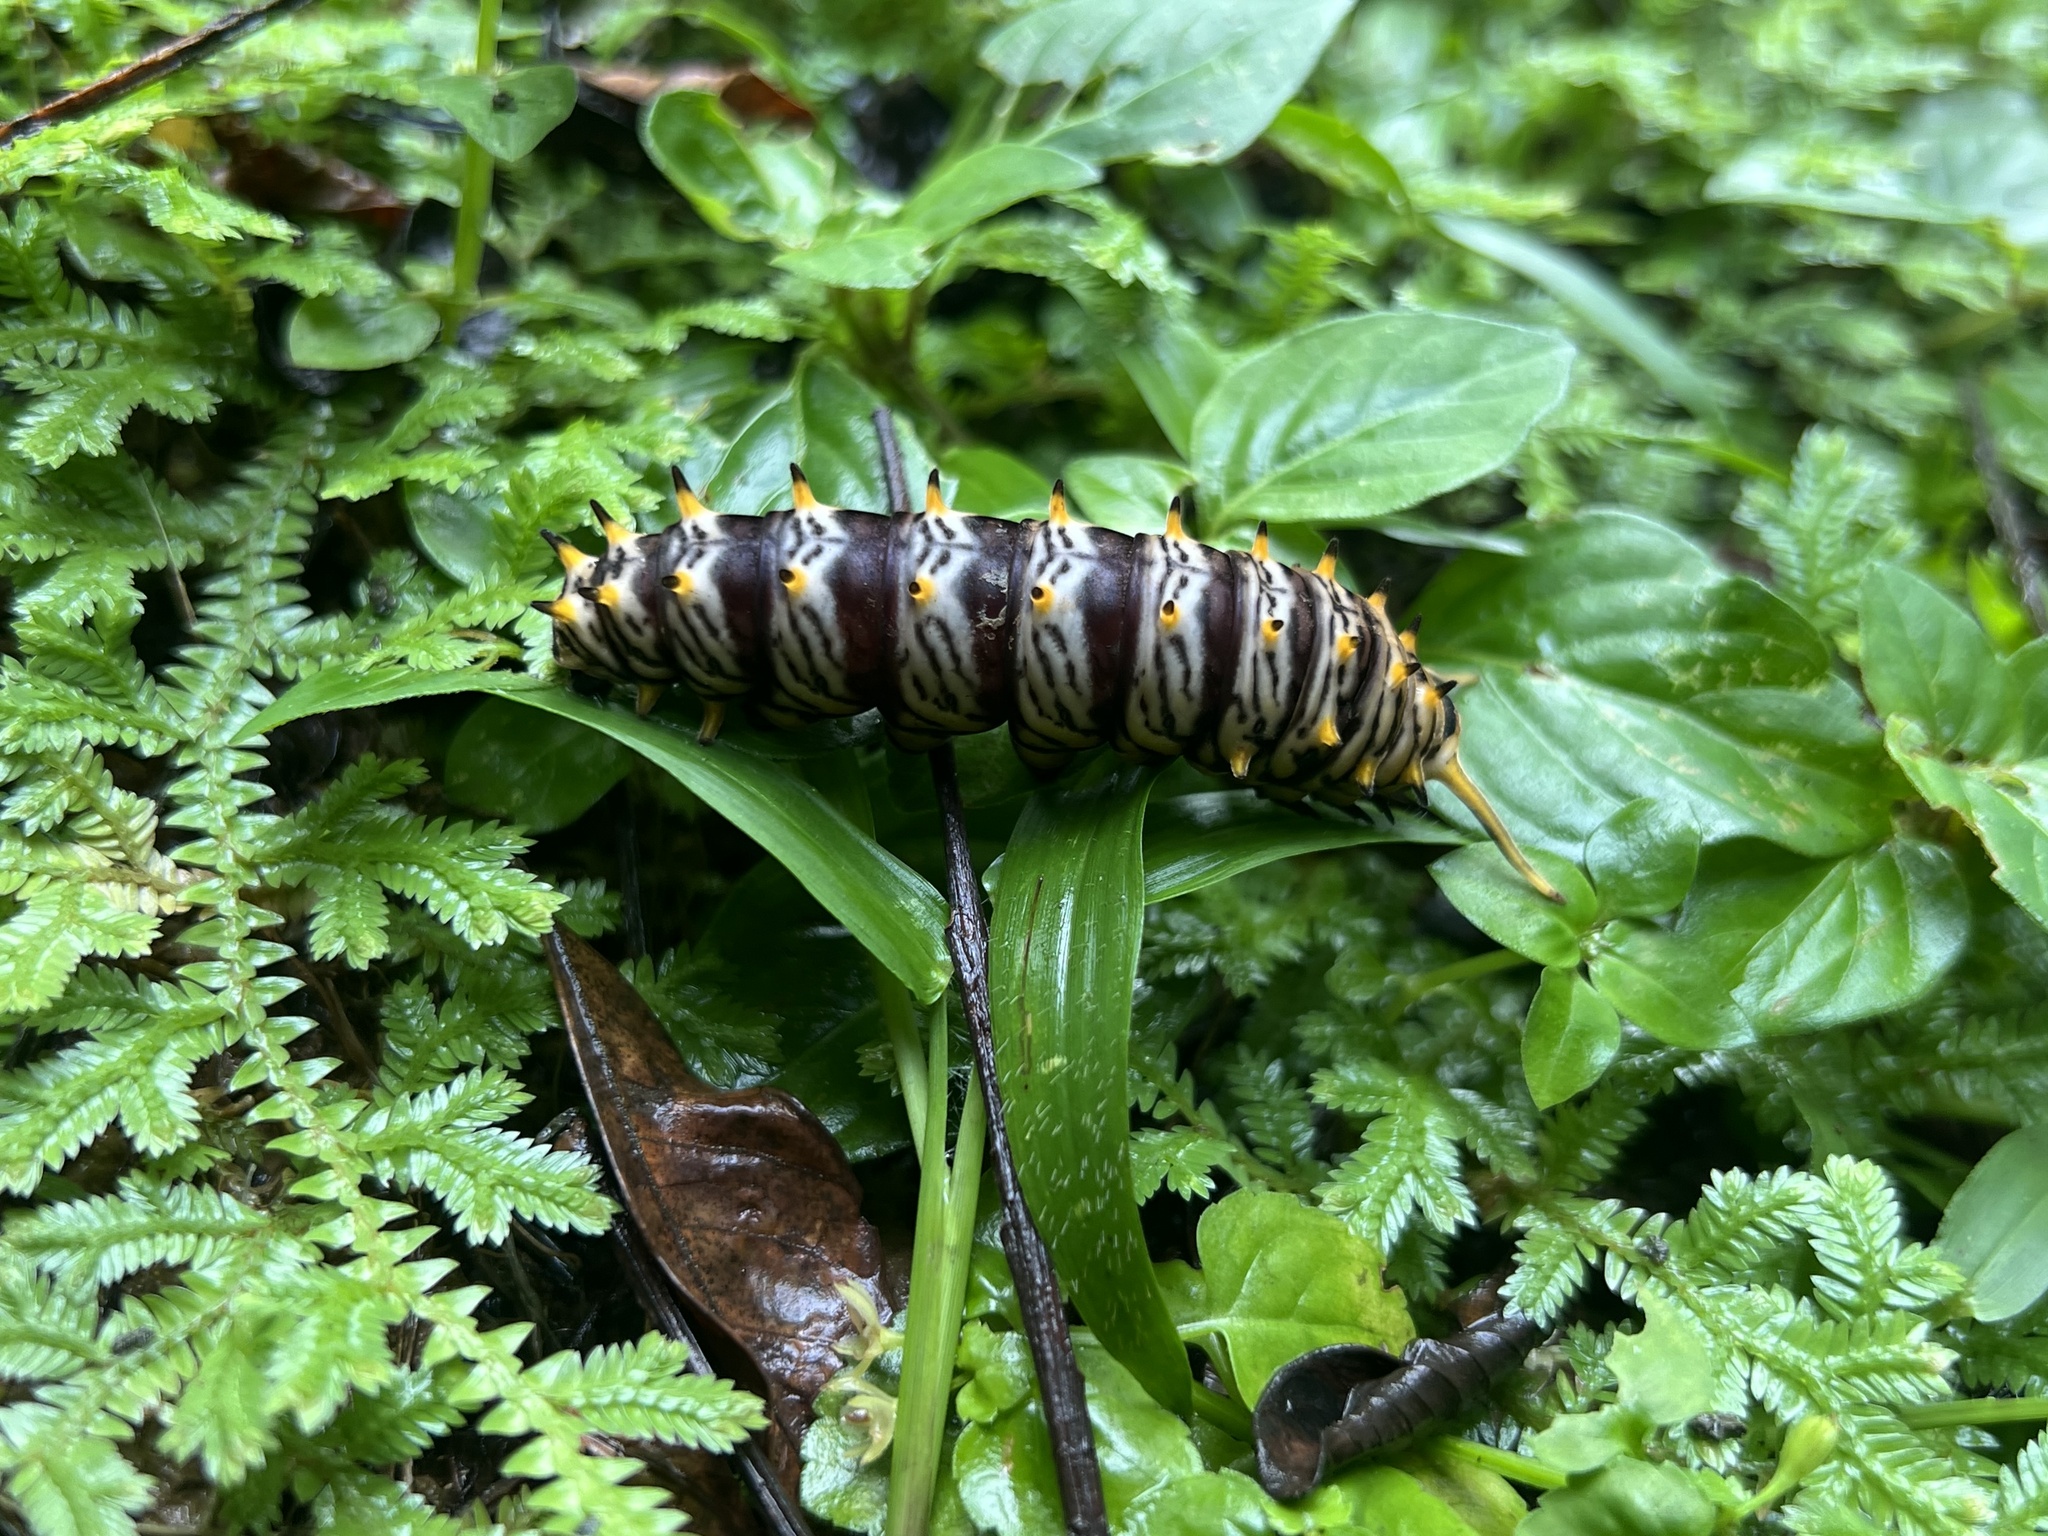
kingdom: Animalia
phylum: Arthropoda
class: Insecta
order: Lepidoptera
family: Papilionidae
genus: Battus
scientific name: Battus polydamas
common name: Polydamas swallowtail
